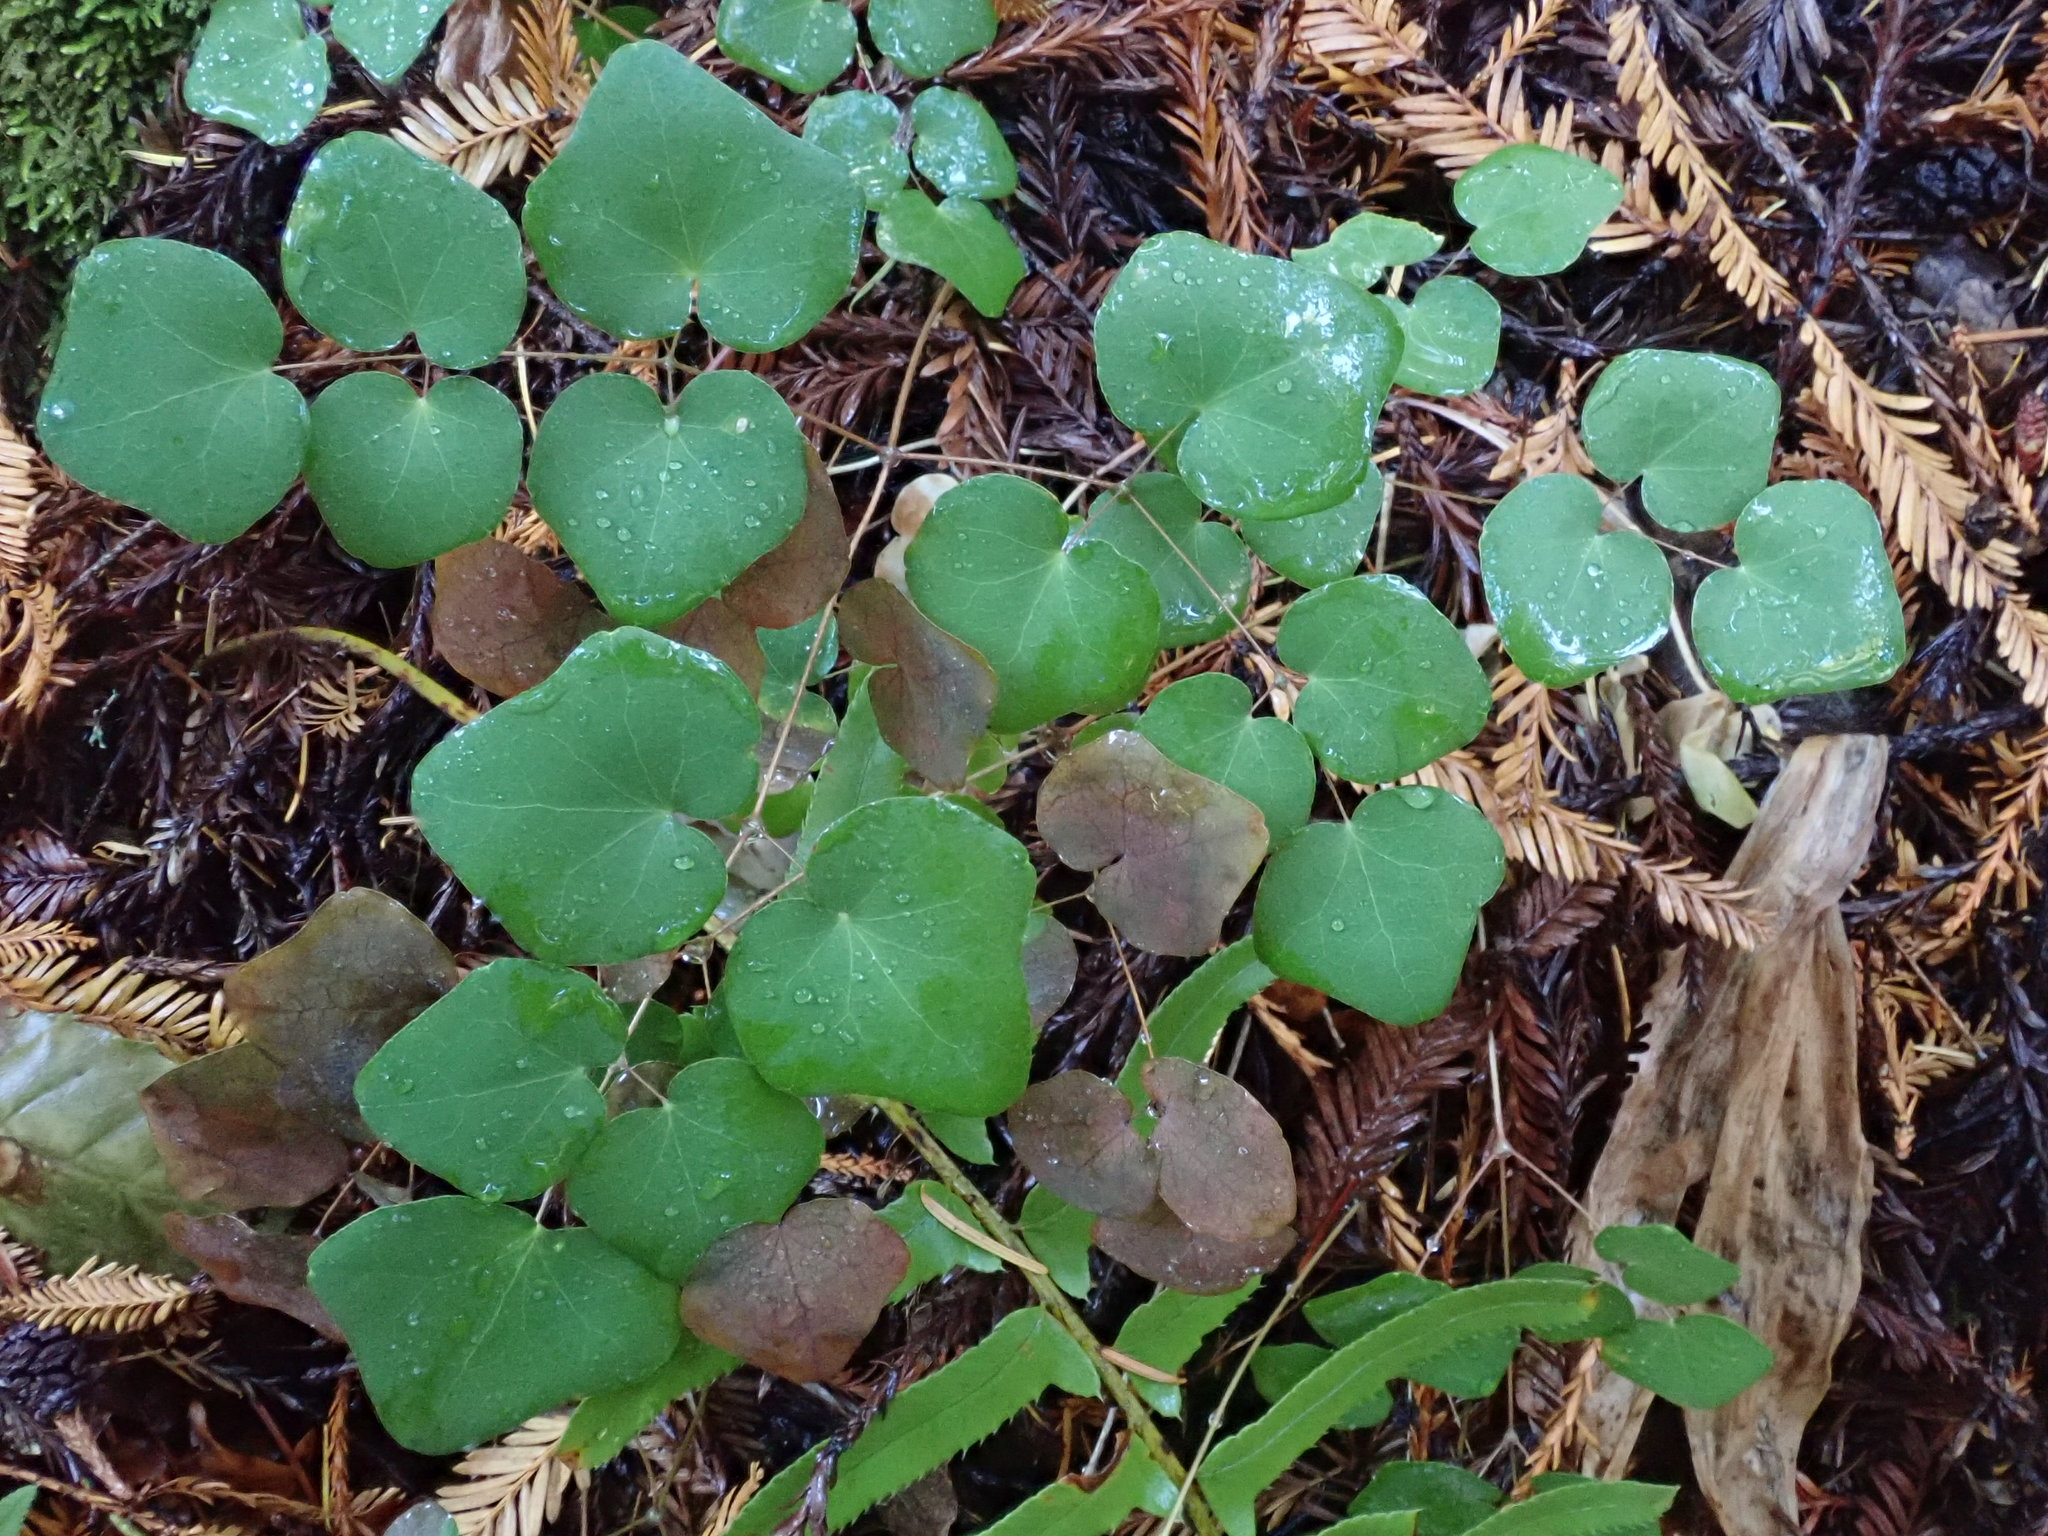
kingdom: Plantae
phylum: Tracheophyta
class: Magnoliopsida
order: Ranunculales
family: Berberidaceae
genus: Vancouveria
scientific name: Vancouveria planipetala
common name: Redwood-ivy
